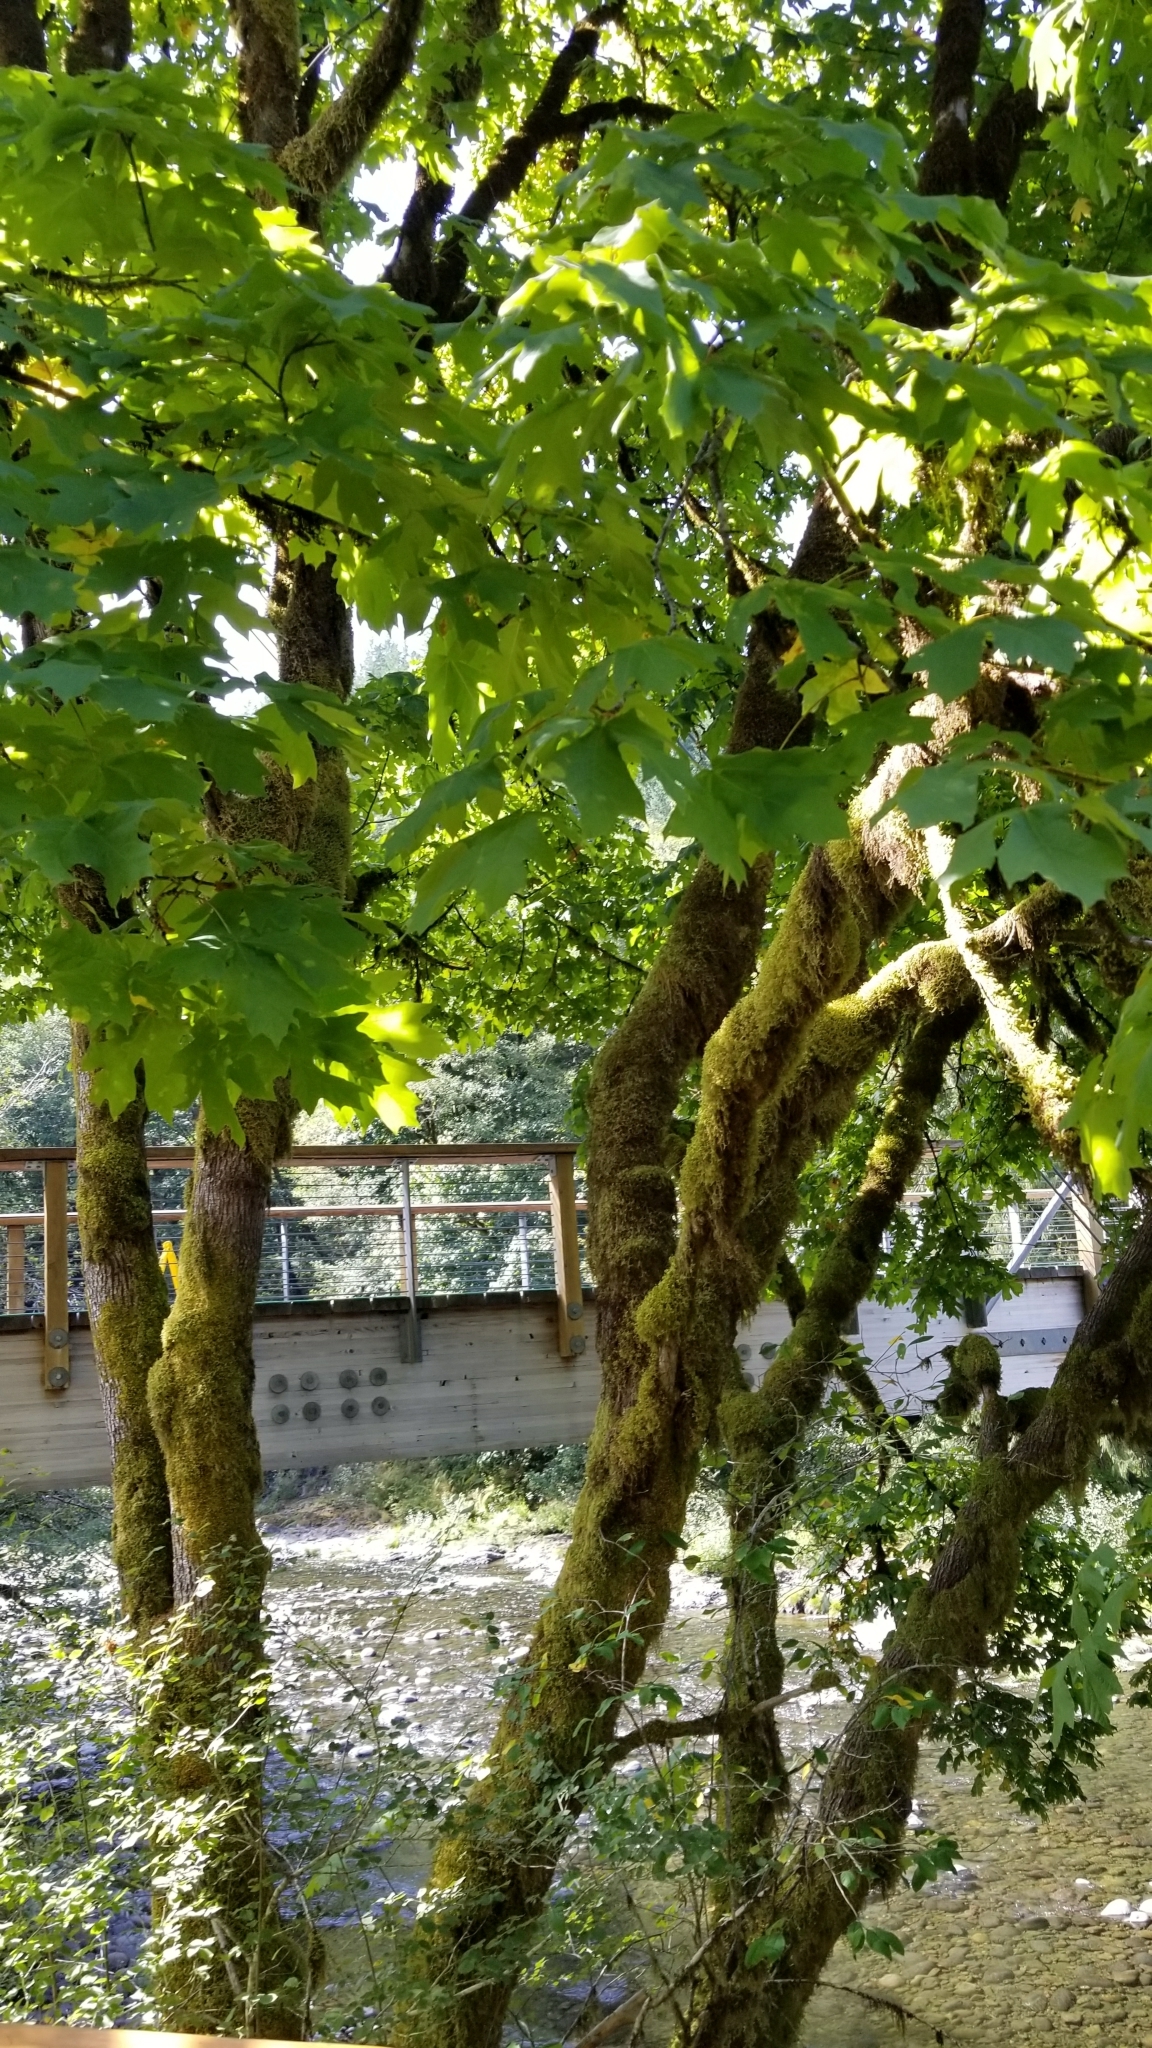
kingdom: Plantae
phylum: Tracheophyta
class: Magnoliopsida
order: Sapindales
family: Sapindaceae
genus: Acer
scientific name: Acer macrophyllum
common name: Oregon maple
